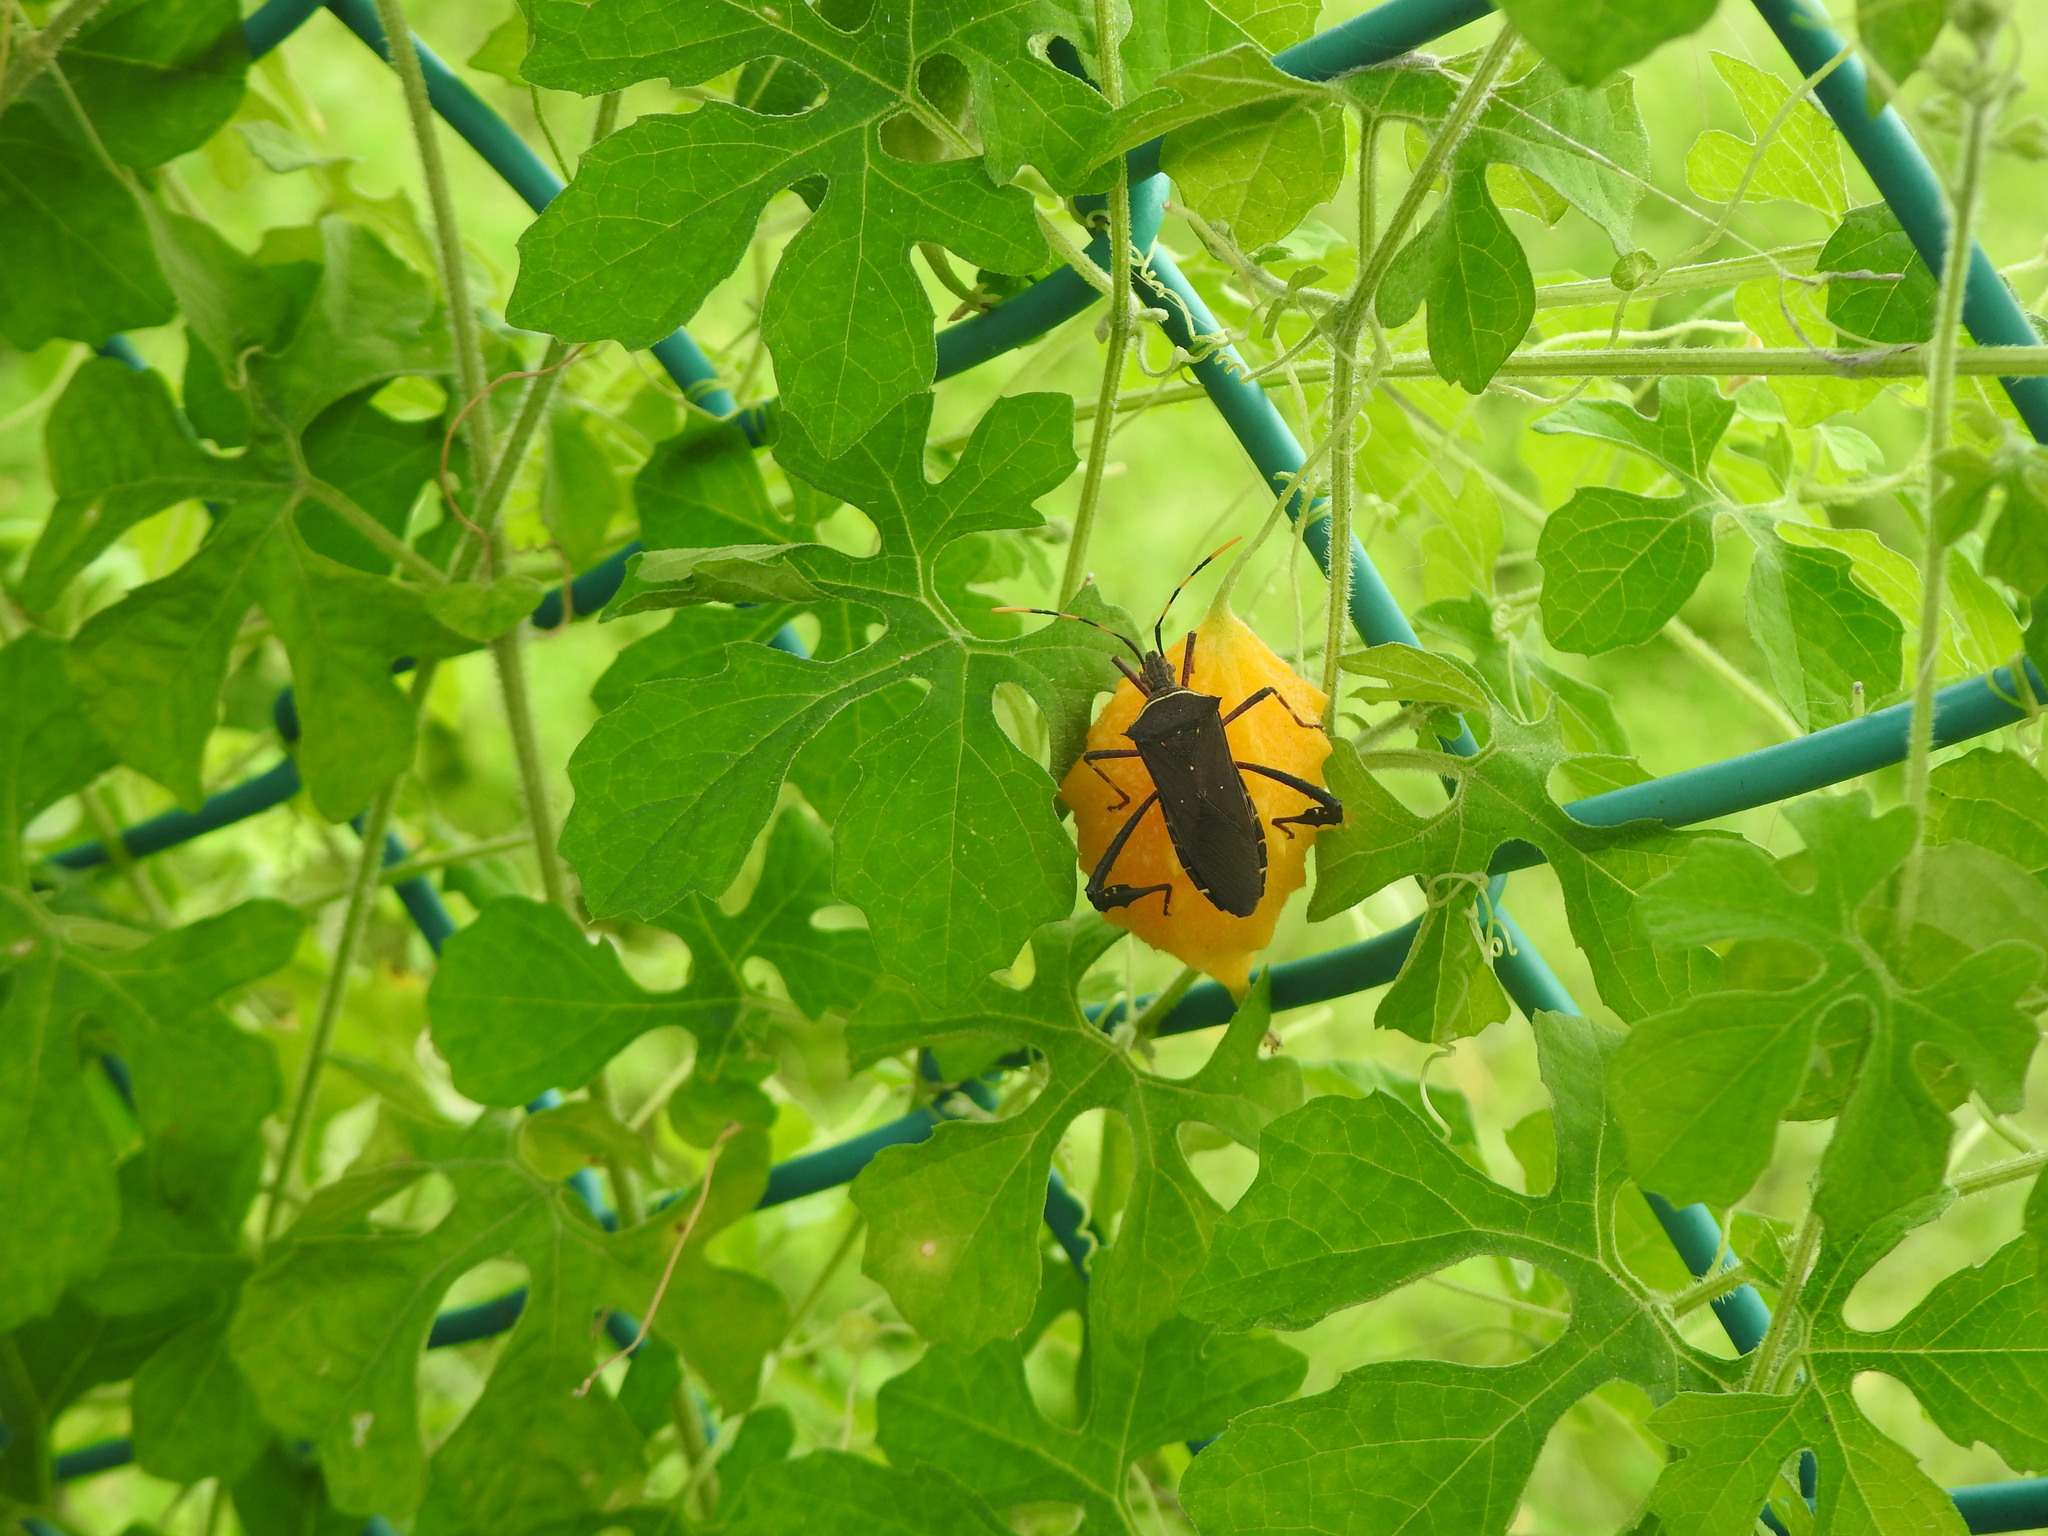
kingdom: Animalia
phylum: Arthropoda
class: Insecta
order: Hemiptera
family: Coreidae
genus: Leptoglossus
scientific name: Leptoglossus gonagra
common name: Citron bug
